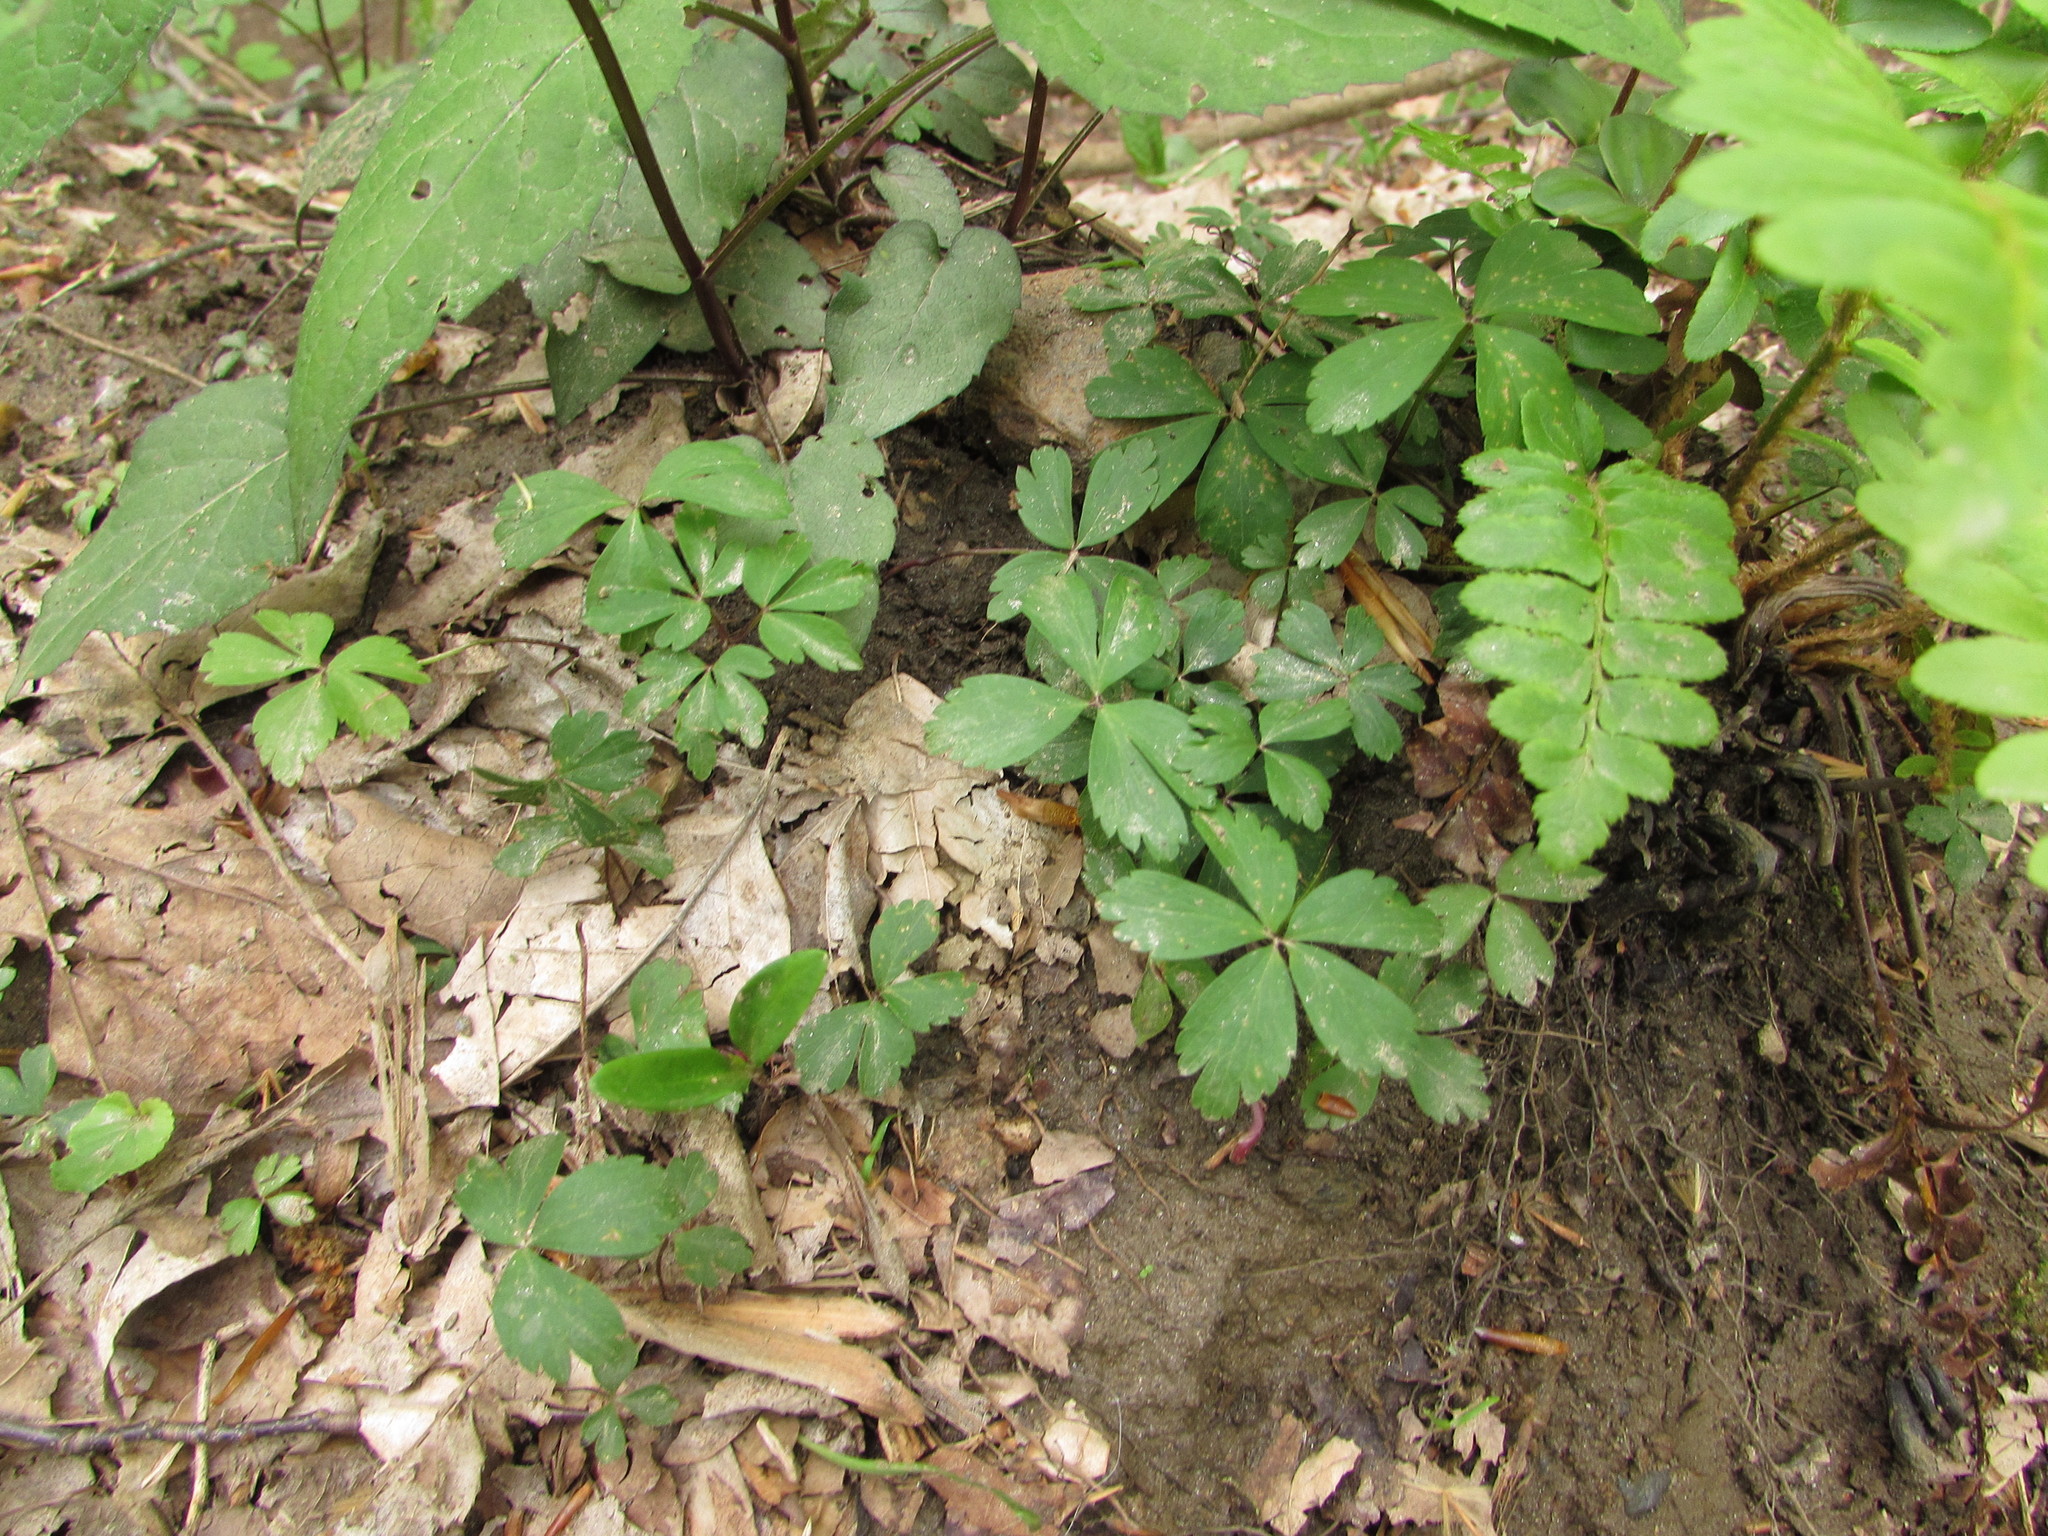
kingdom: Plantae
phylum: Tracheophyta
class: Magnoliopsida
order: Ranunculales
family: Ranunculaceae
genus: Anemone
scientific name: Anemone quinquefolia
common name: Wood anemone
